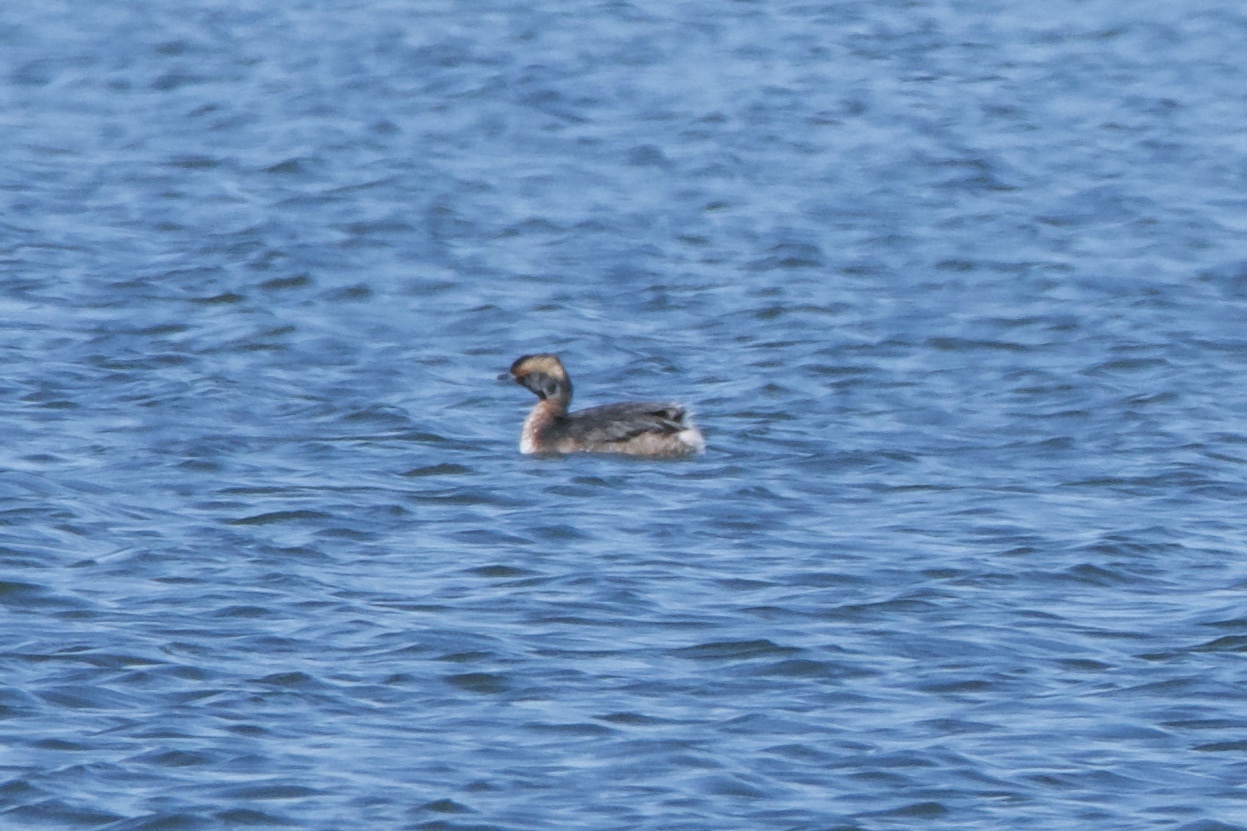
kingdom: Animalia
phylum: Chordata
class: Aves
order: Podicipediformes
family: Podicipedidae
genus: Podiceps
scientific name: Podiceps auritus
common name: Horned grebe
